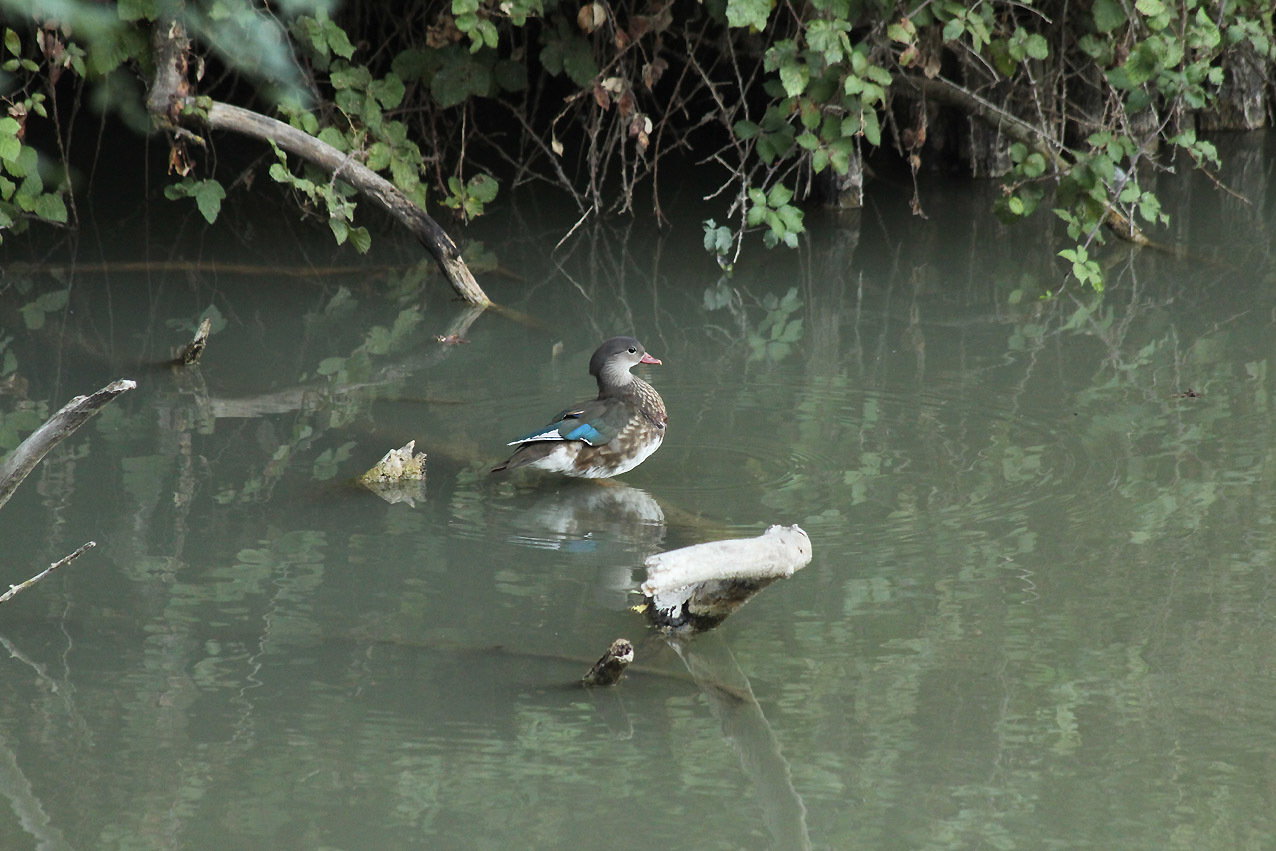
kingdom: Animalia
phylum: Chordata
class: Aves
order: Anseriformes
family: Anatidae
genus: Aix
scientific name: Aix galericulata
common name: Mandarin duck
